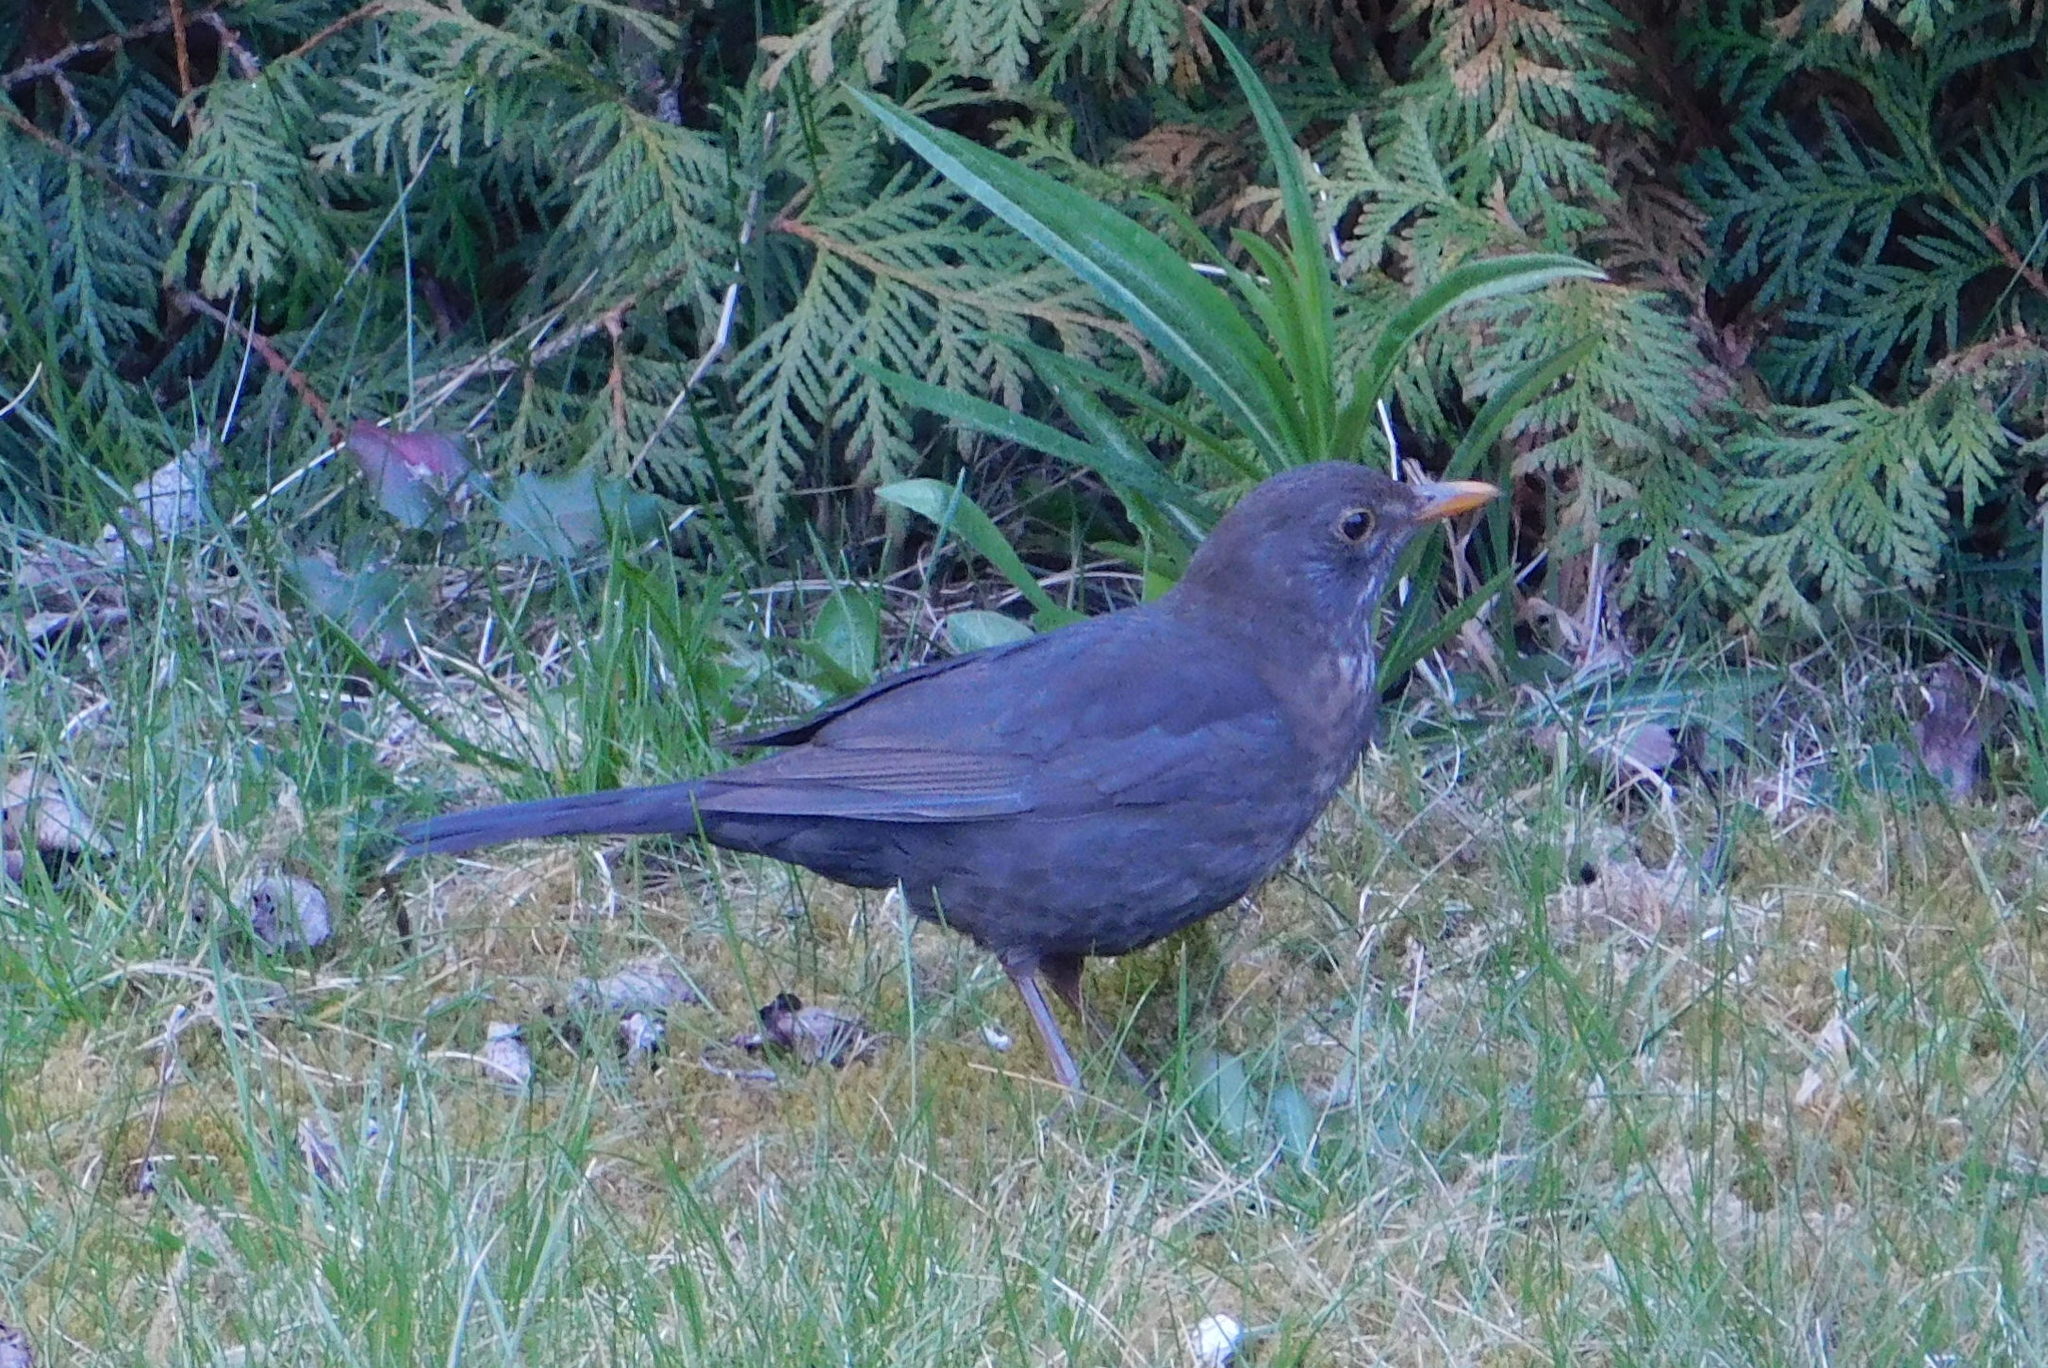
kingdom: Animalia
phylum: Chordata
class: Aves
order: Passeriformes
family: Turdidae
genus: Turdus
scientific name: Turdus merula
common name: Common blackbird
